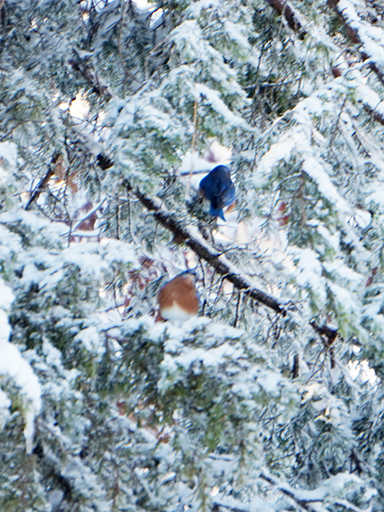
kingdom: Animalia
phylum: Chordata
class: Aves
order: Passeriformes
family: Turdidae
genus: Sialia
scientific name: Sialia sialis
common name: Eastern bluebird
